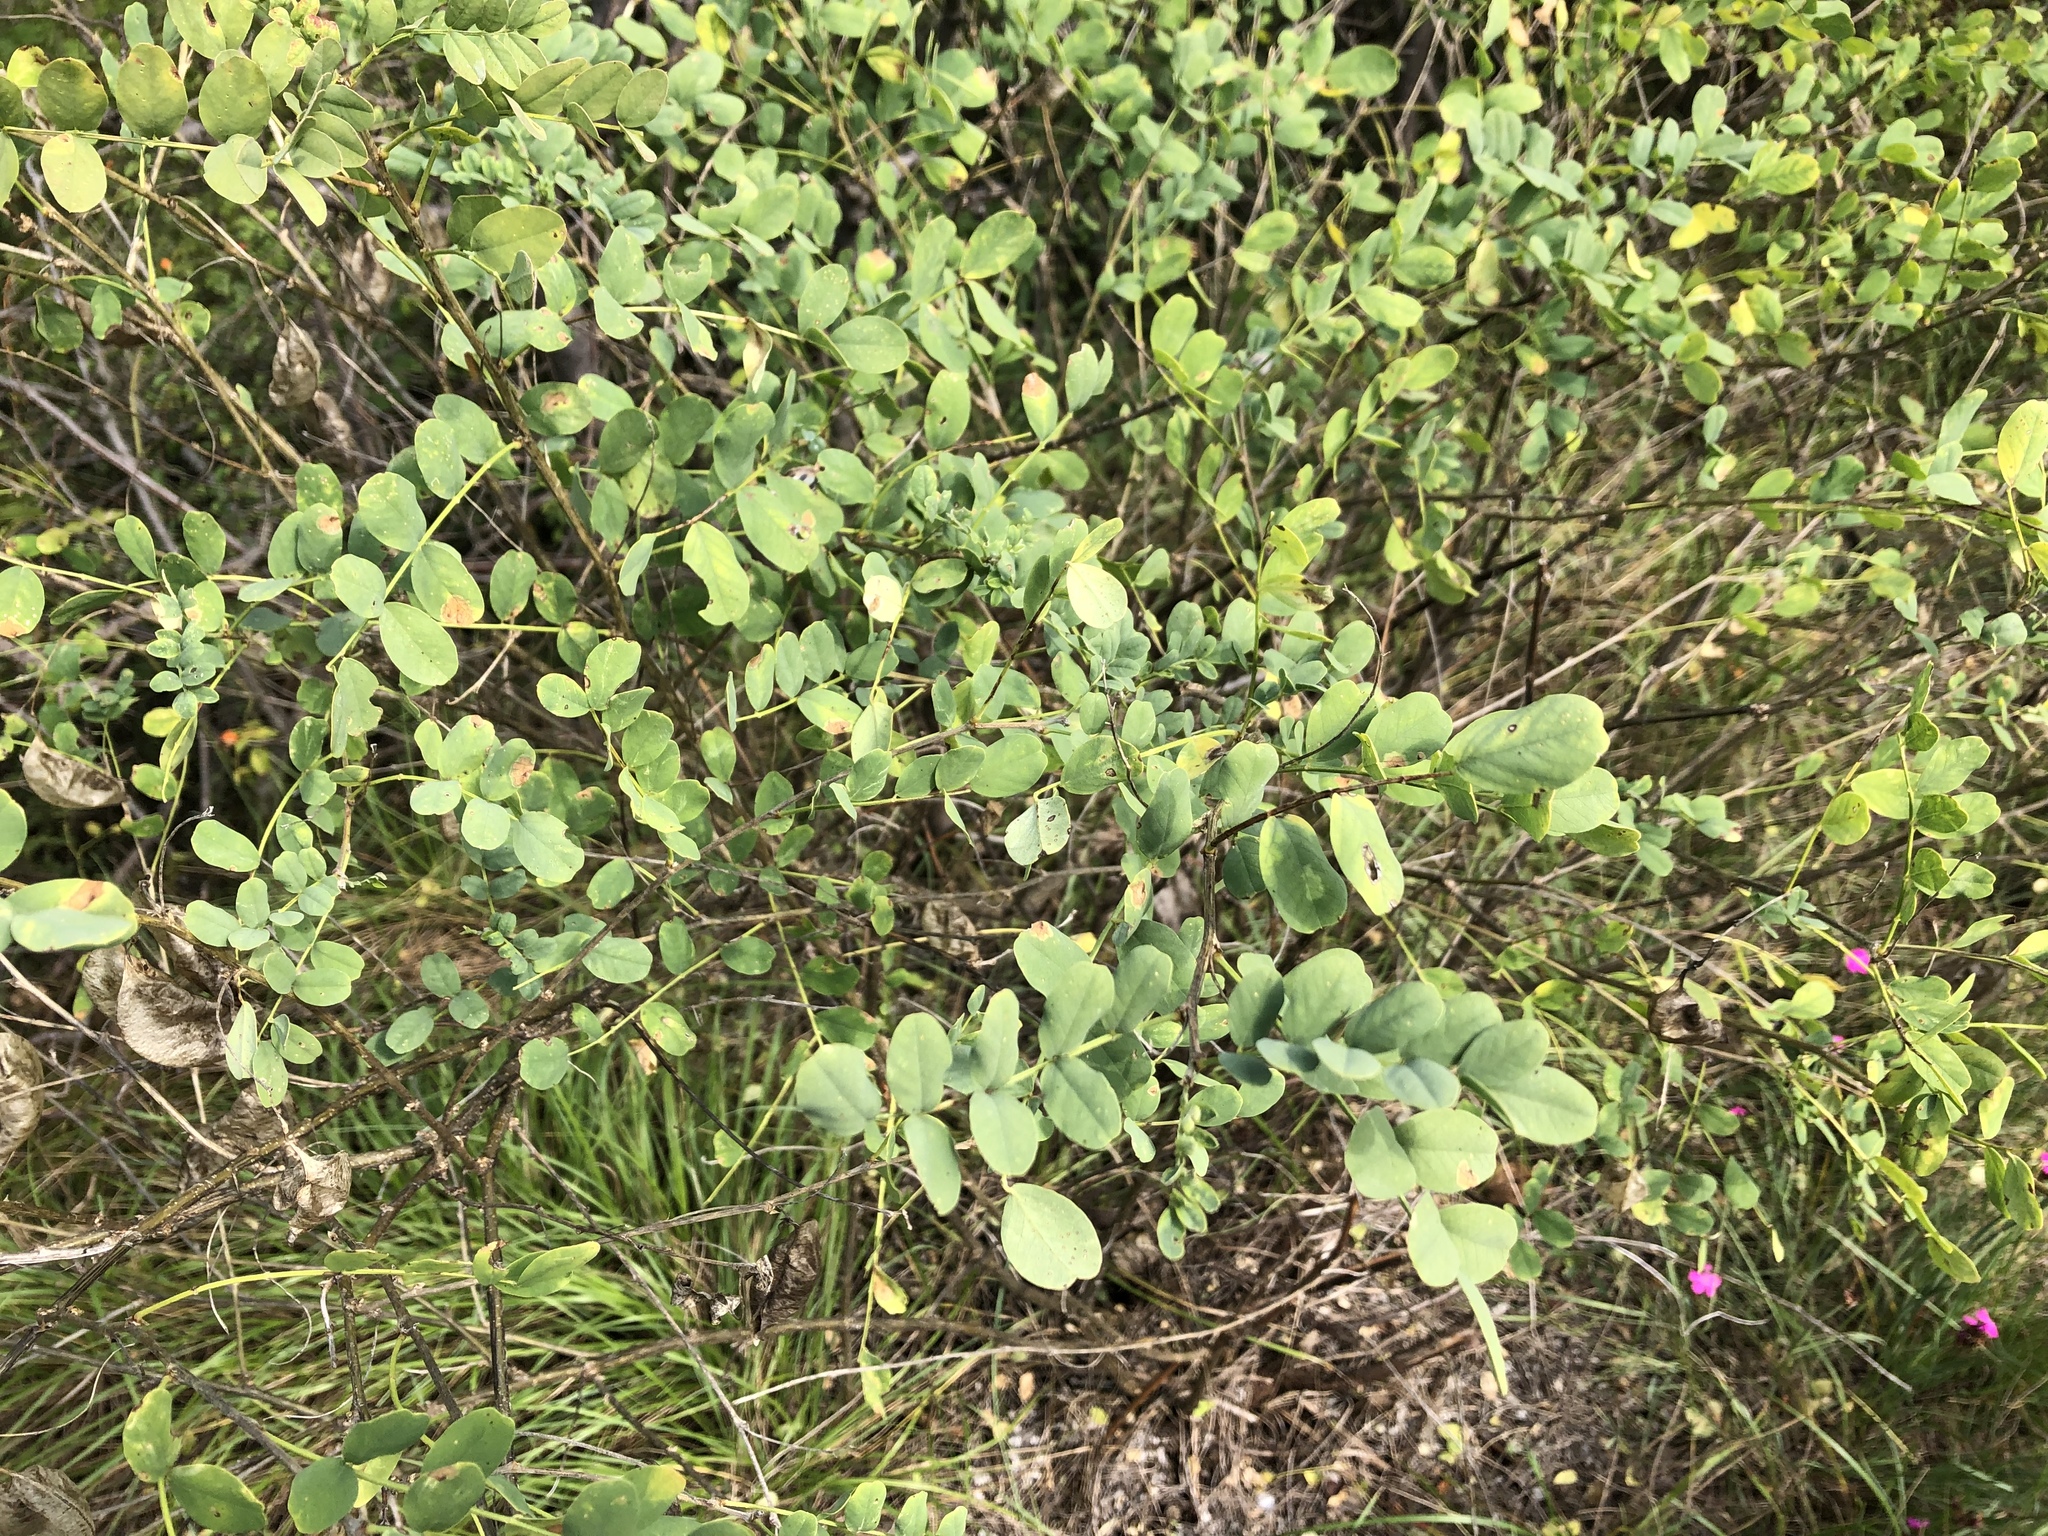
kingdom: Plantae
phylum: Tracheophyta
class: Magnoliopsida
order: Fabales
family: Fabaceae
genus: Colutea
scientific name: Colutea arborescens
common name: Bladder-senna
